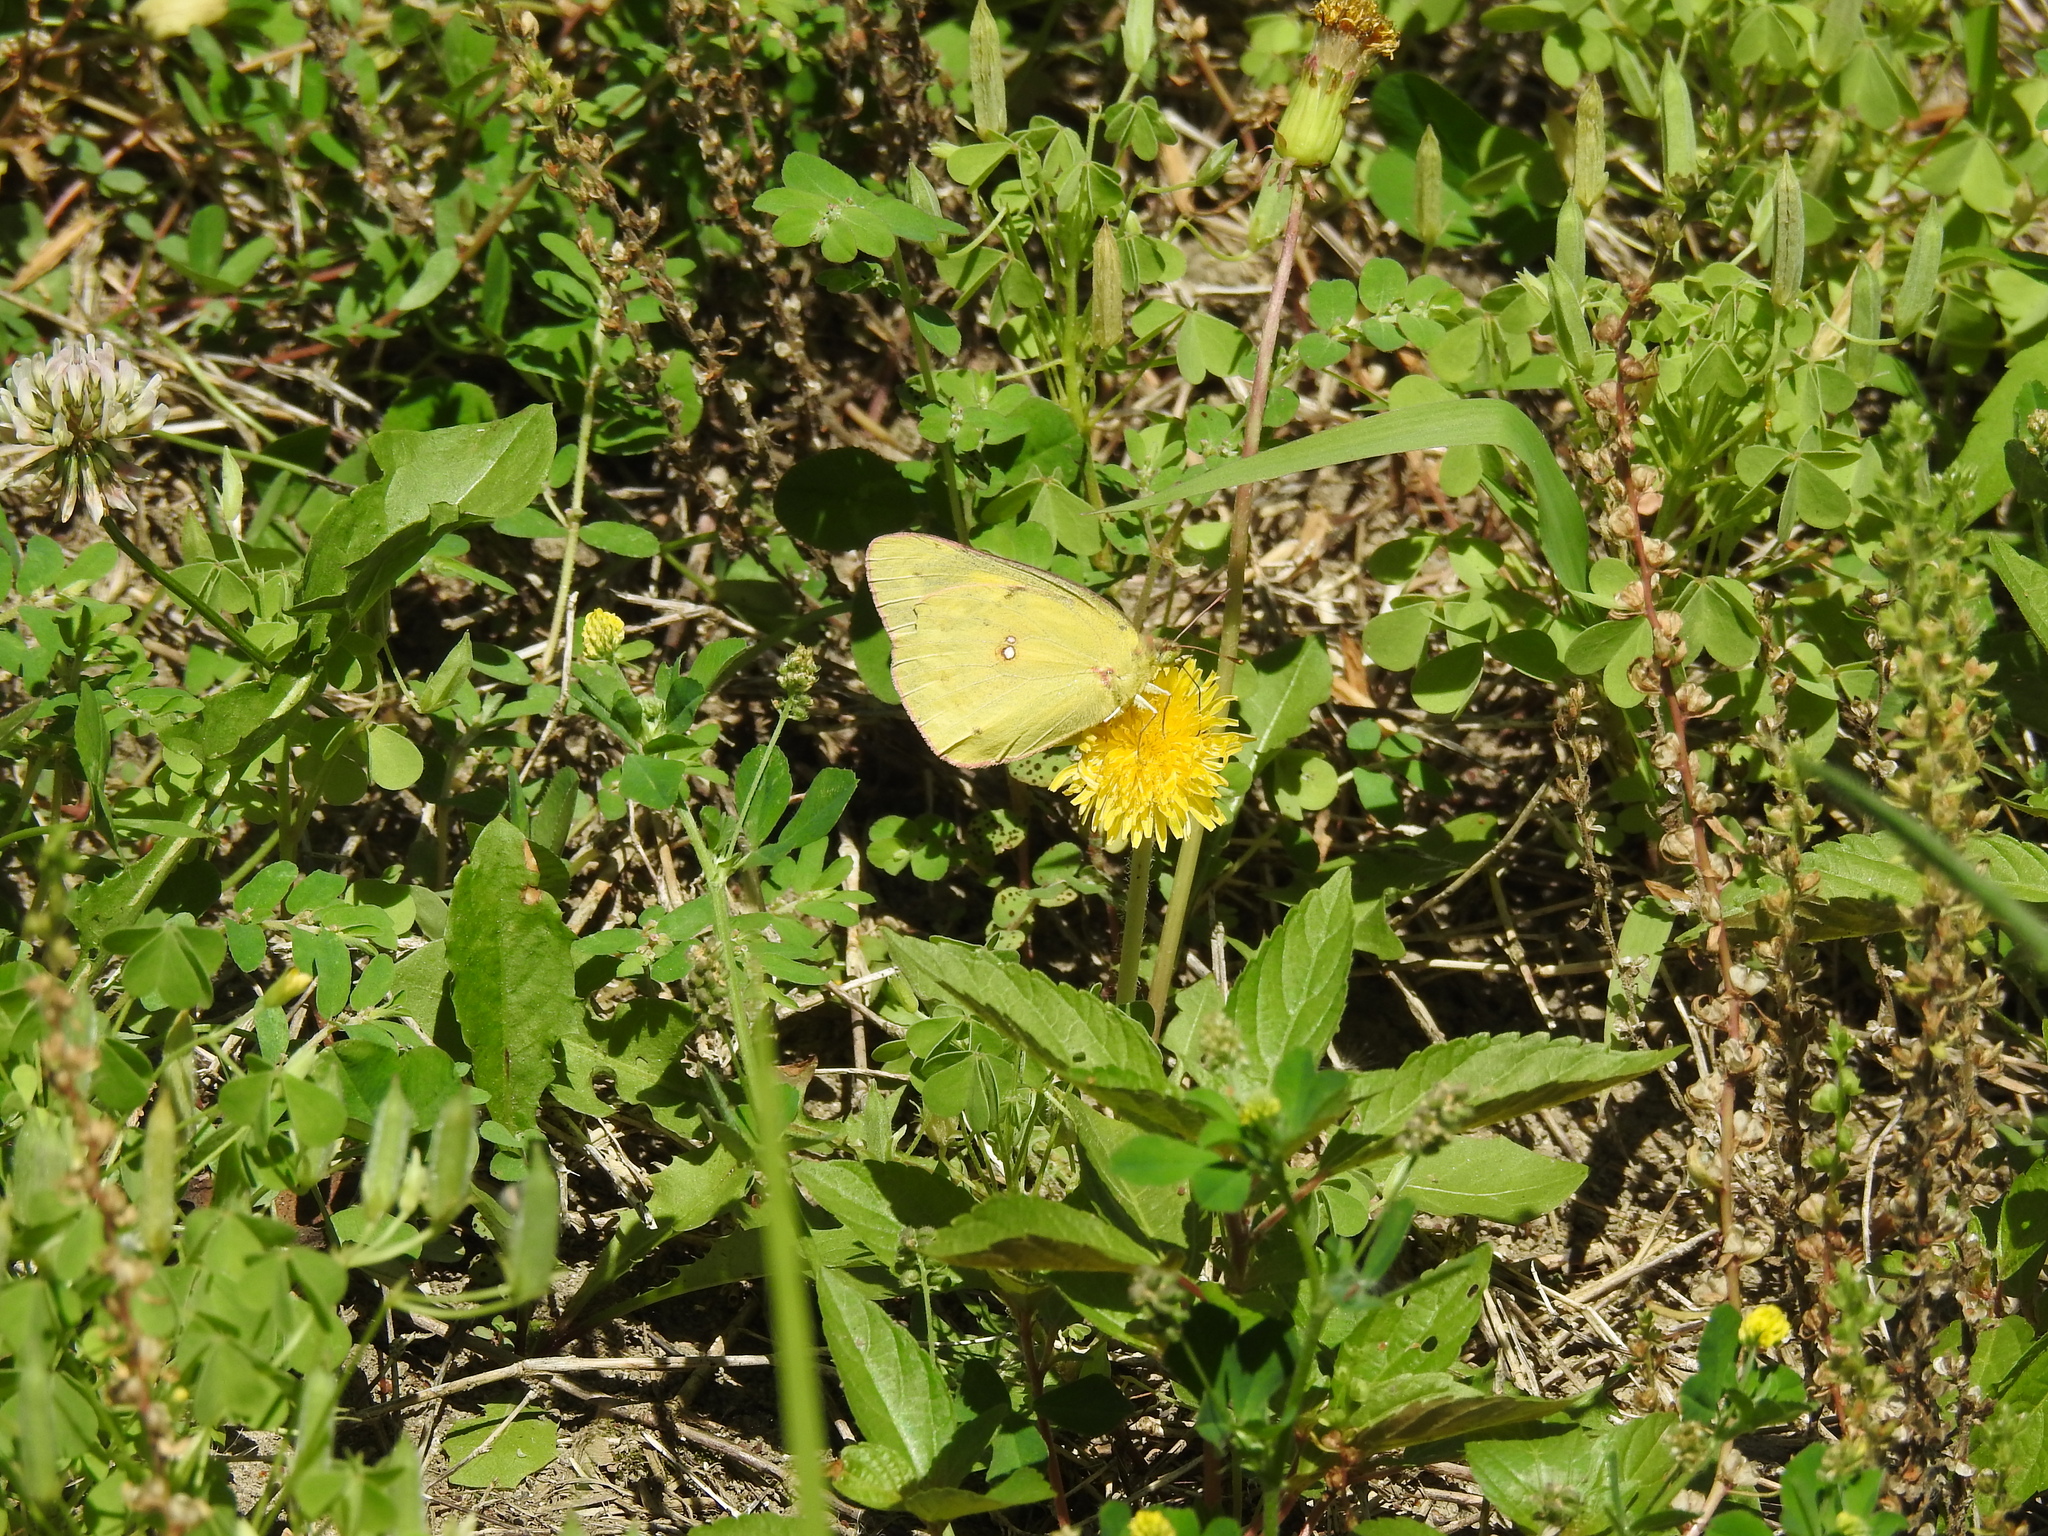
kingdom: Animalia
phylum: Arthropoda
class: Insecta
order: Lepidoptera
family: Pieridae
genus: Colias
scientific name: Colias eurytheme
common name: Alfalfa butterfly
